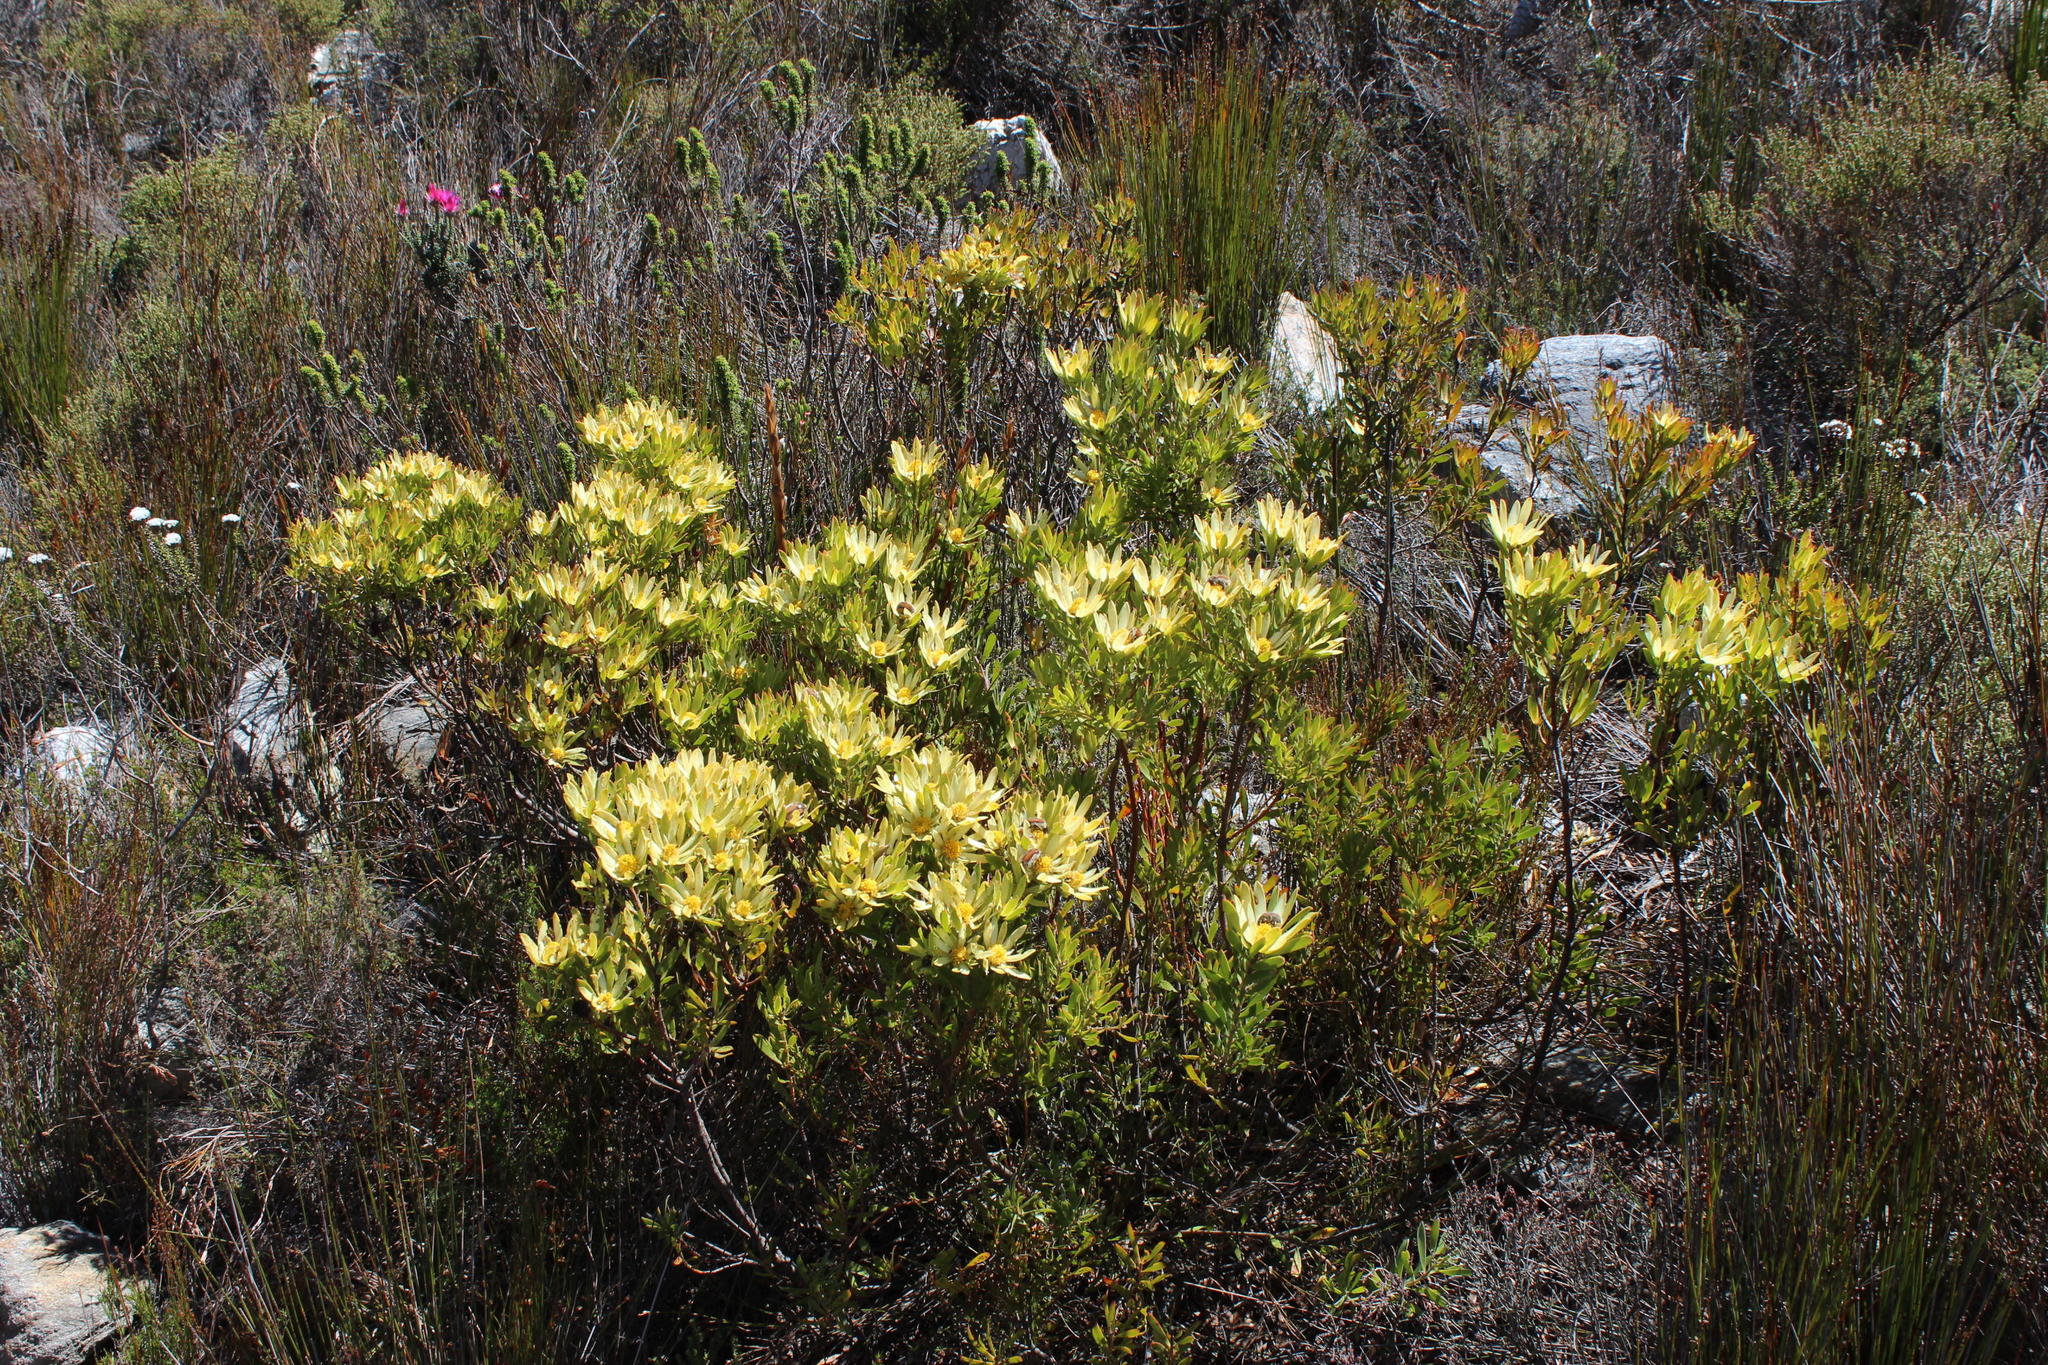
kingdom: Plantae
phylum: Tracheophyta
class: Magnoliopsida
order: Proteales
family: Proteaceae
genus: Leucadendron
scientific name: Leucadendron spissifolium
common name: Spear-leaf conebush
